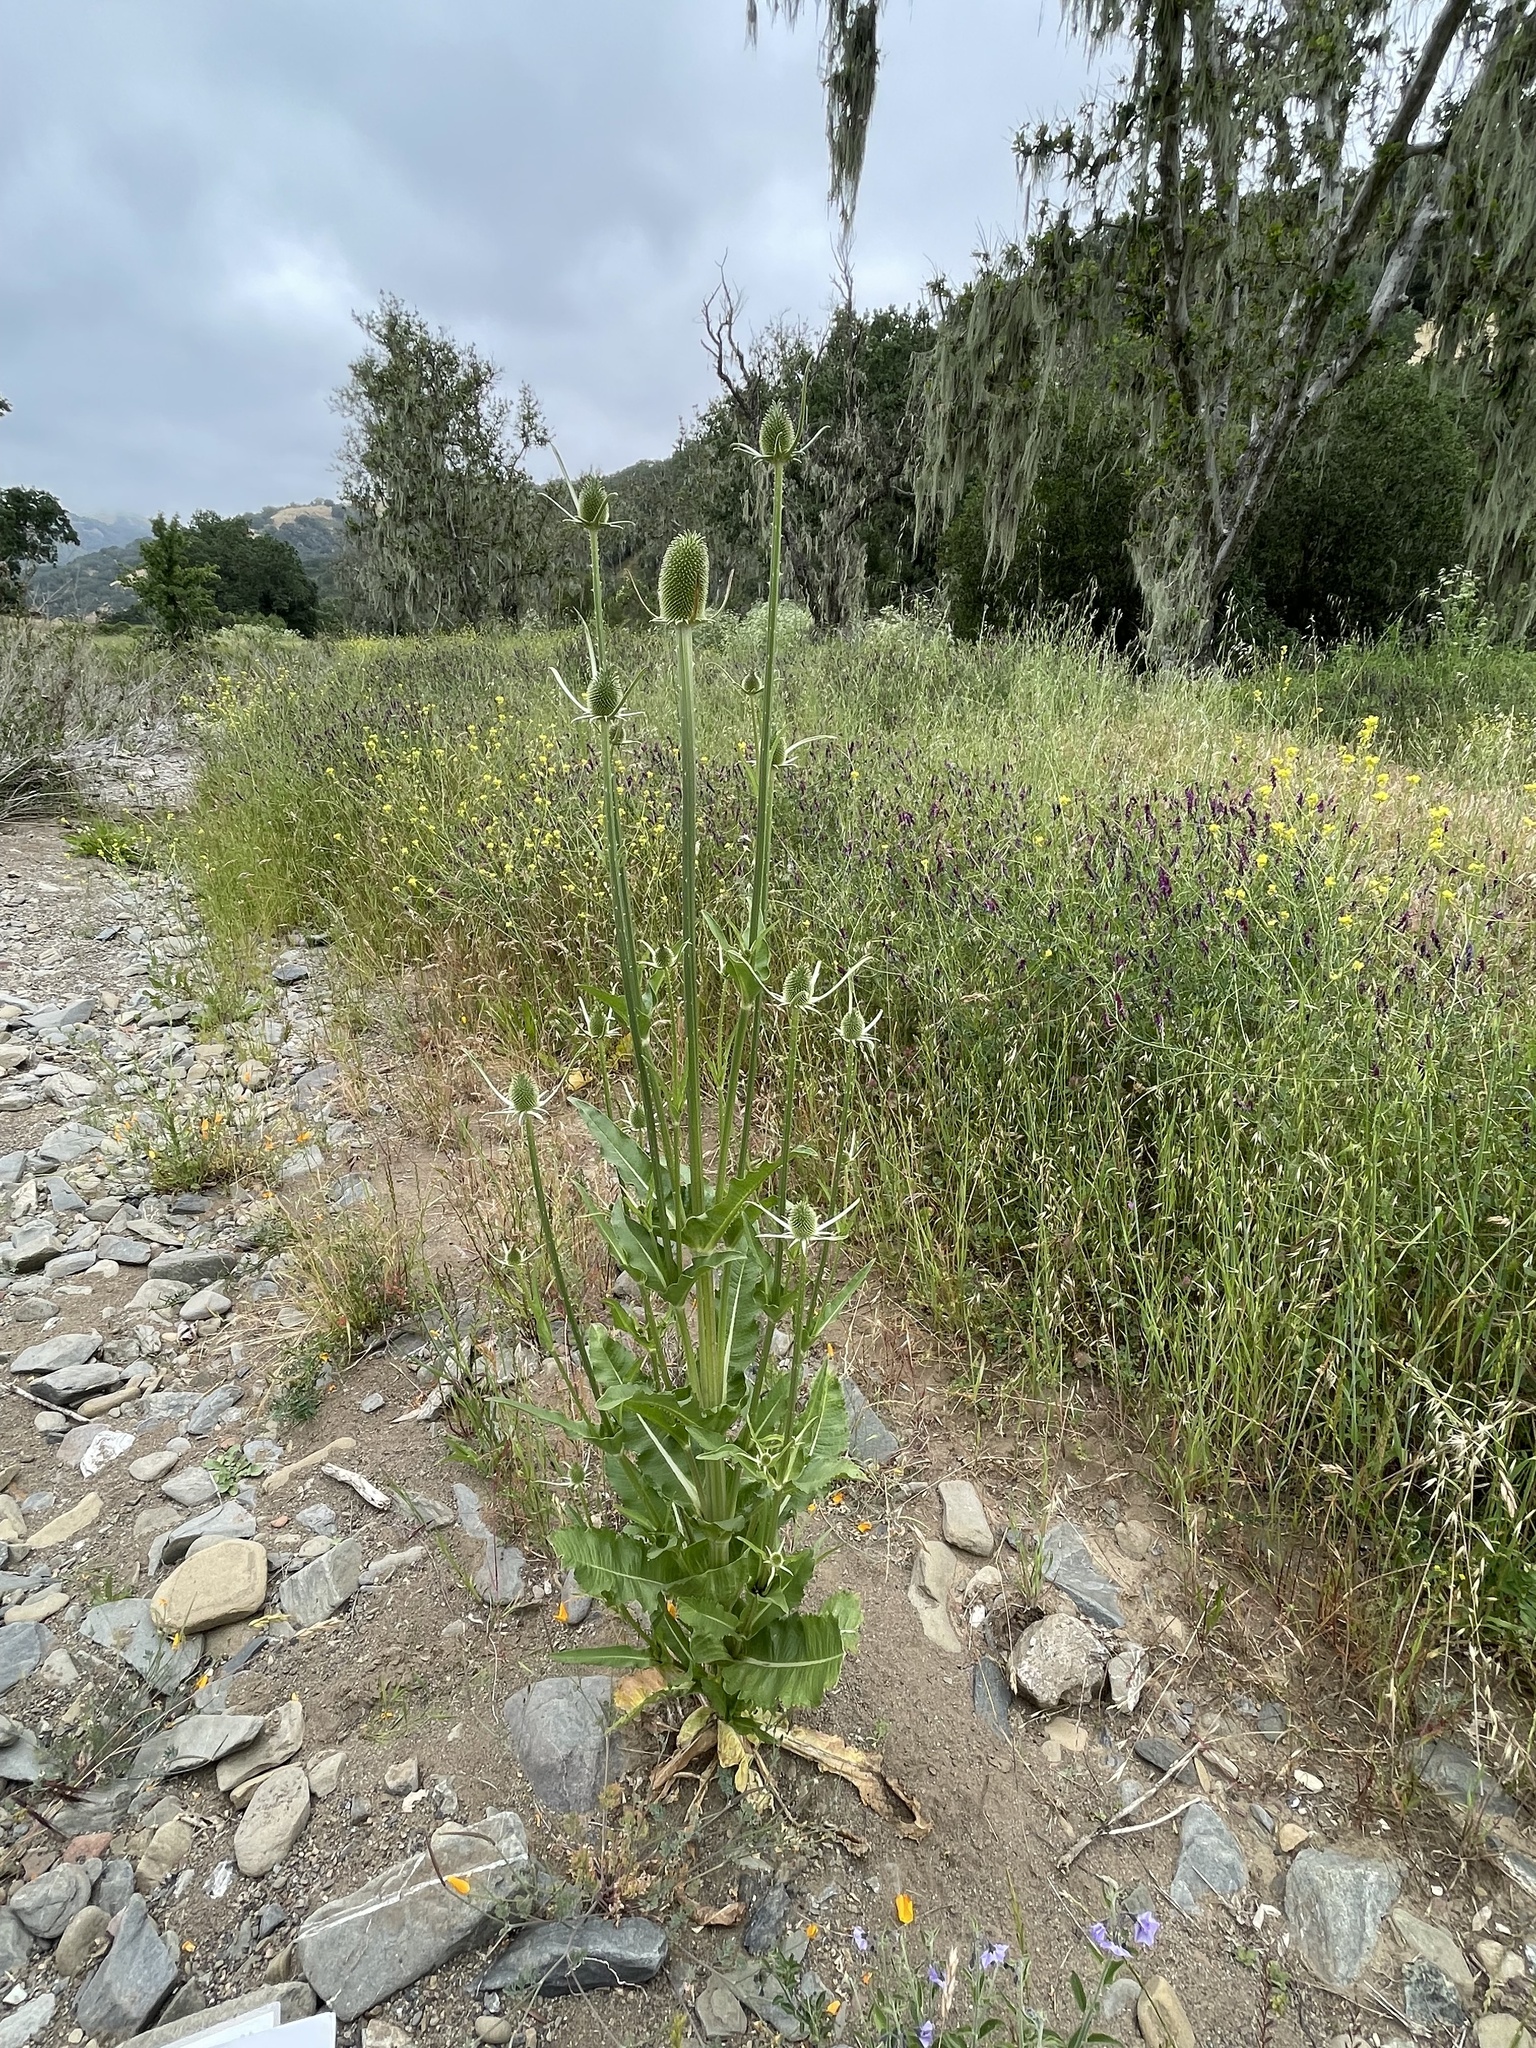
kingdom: Plantae
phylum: Tracheophyta
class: Magnoliopsida
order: Dipsacales
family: Caprifoliaceae
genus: Dipsacus
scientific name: Dipsacus sativus
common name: Fuller's teasel
